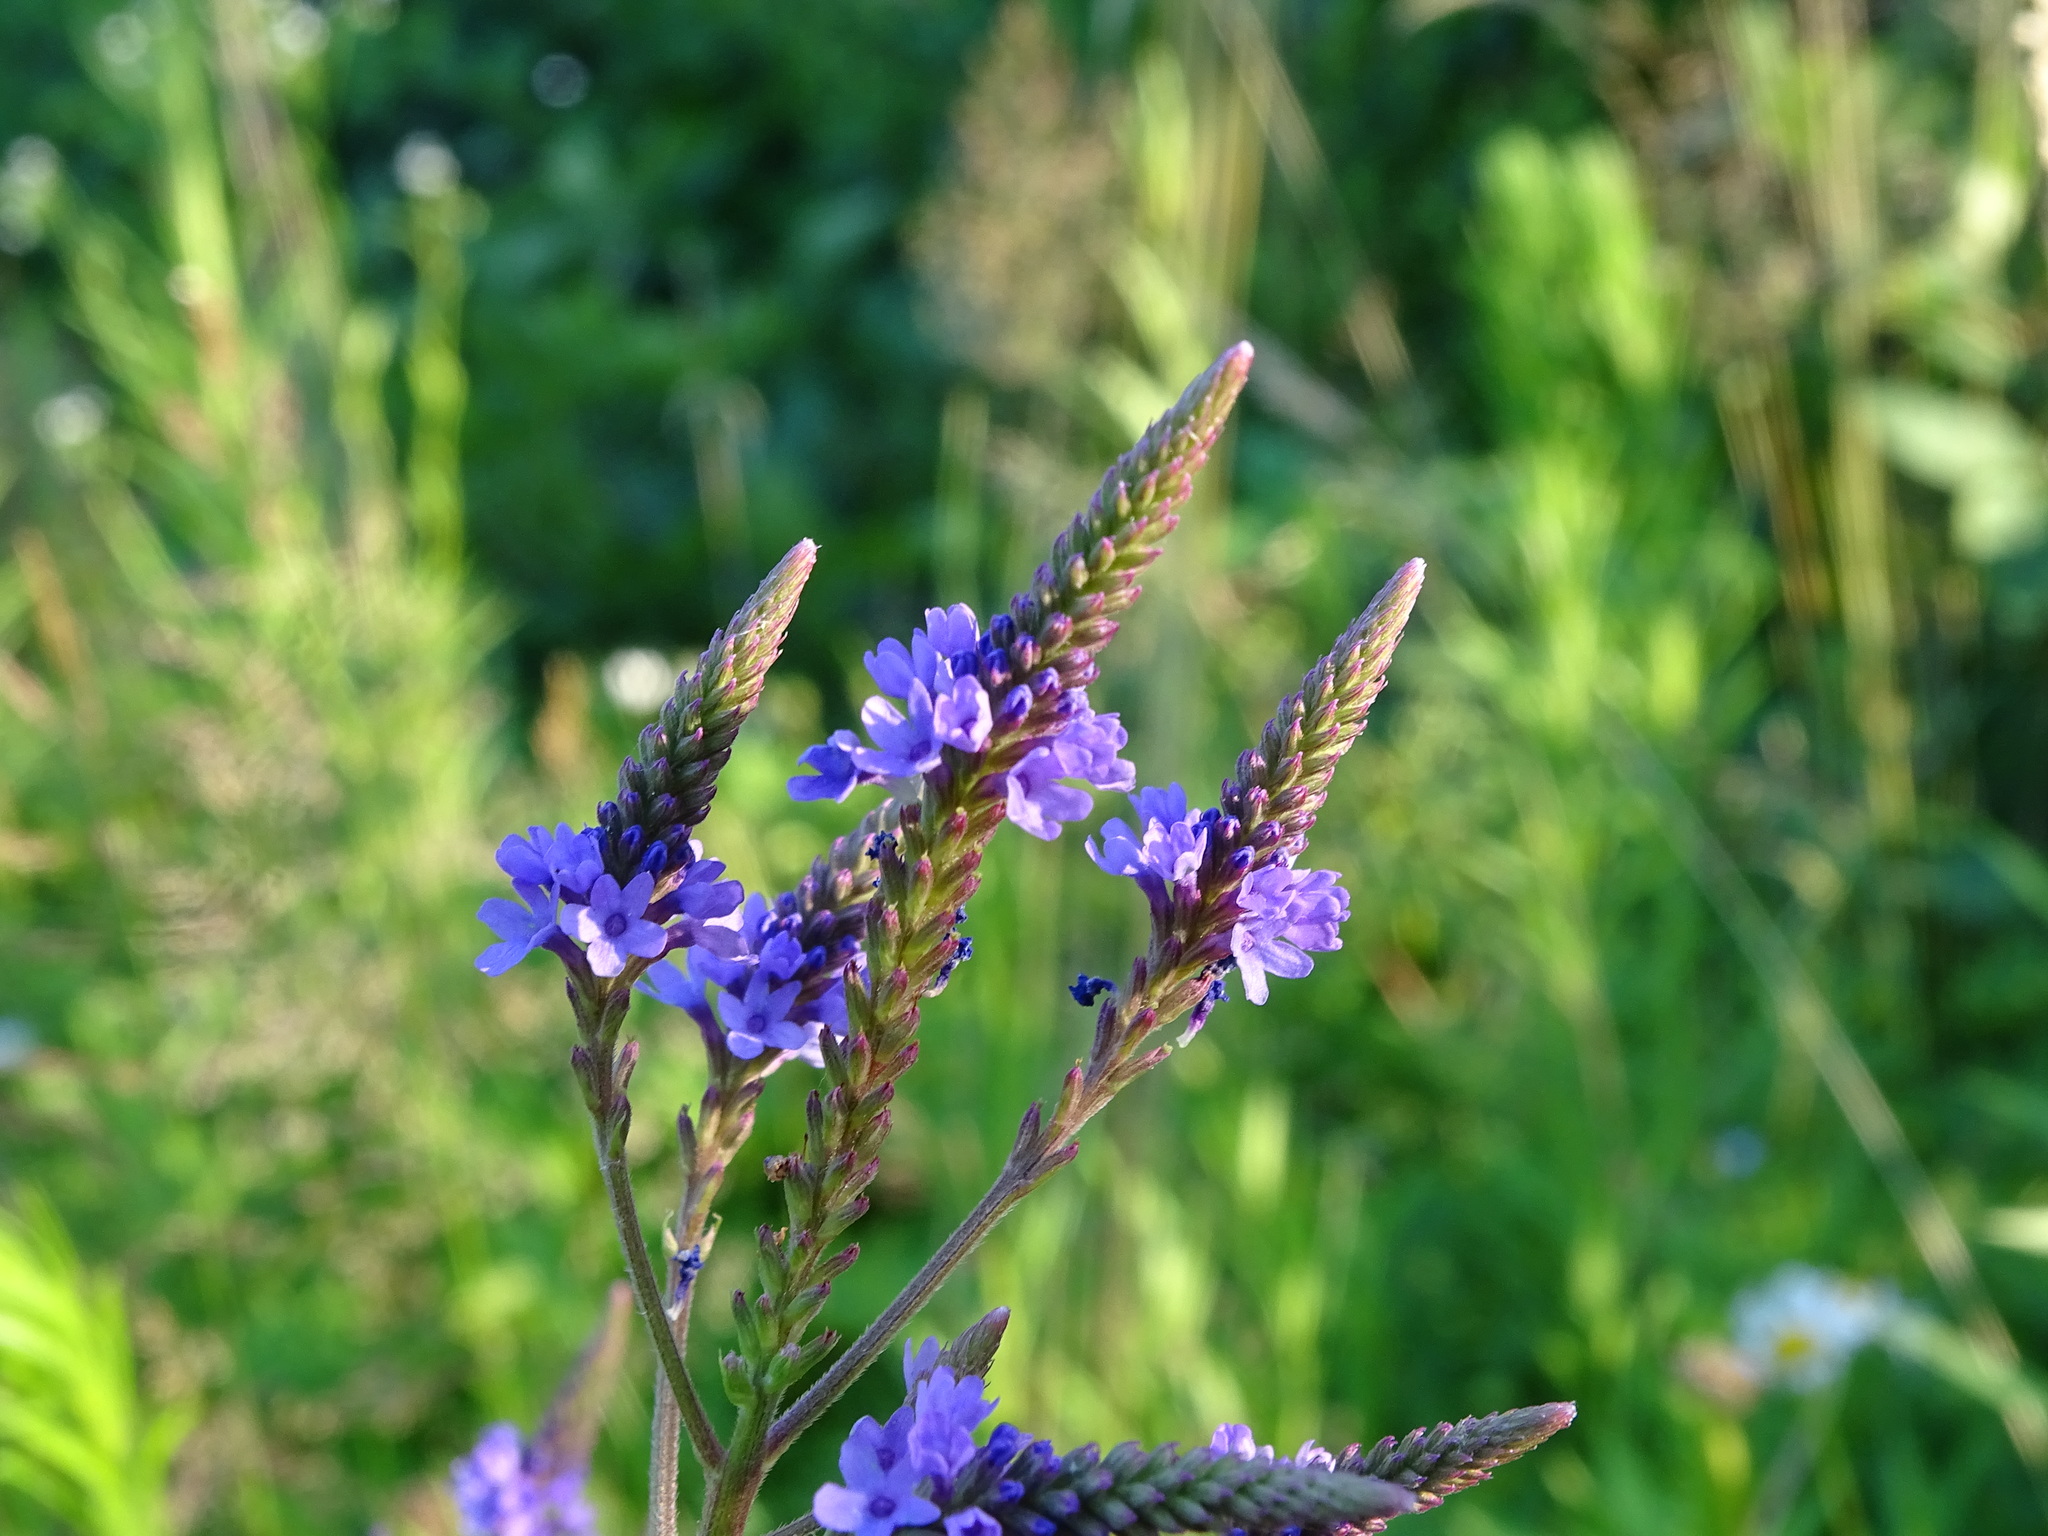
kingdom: Plantae
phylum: Tracheophyta
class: Magnoliopsida
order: Lamiales
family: Verbenaceae
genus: Verbena
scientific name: Verbena hastata
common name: American blue vervain
